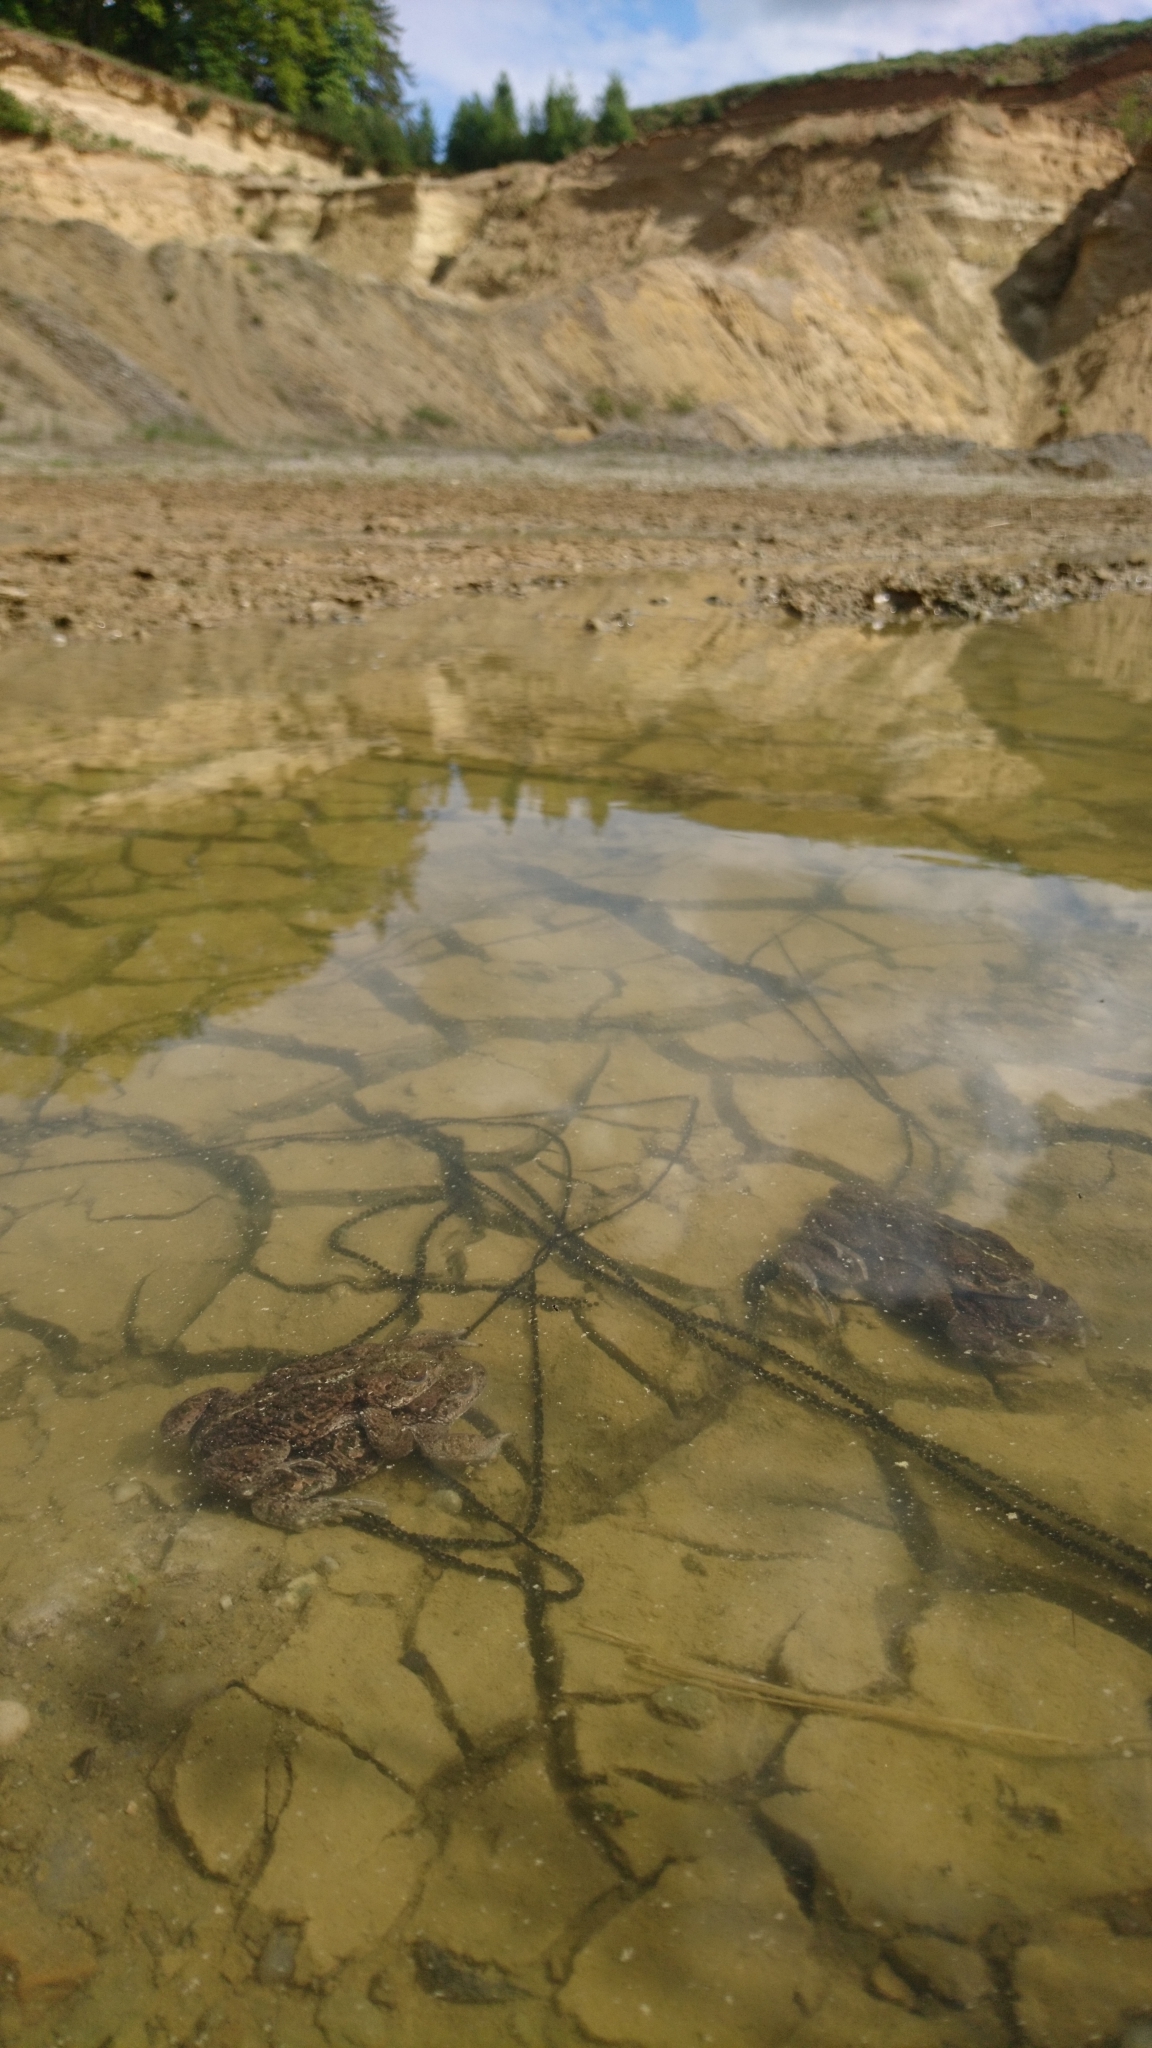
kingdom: Animalia
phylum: Chordata
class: Amphibia
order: Anura
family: Bufonidae
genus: Epidalea
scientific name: Epidalea calamita
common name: Natterjack toad
